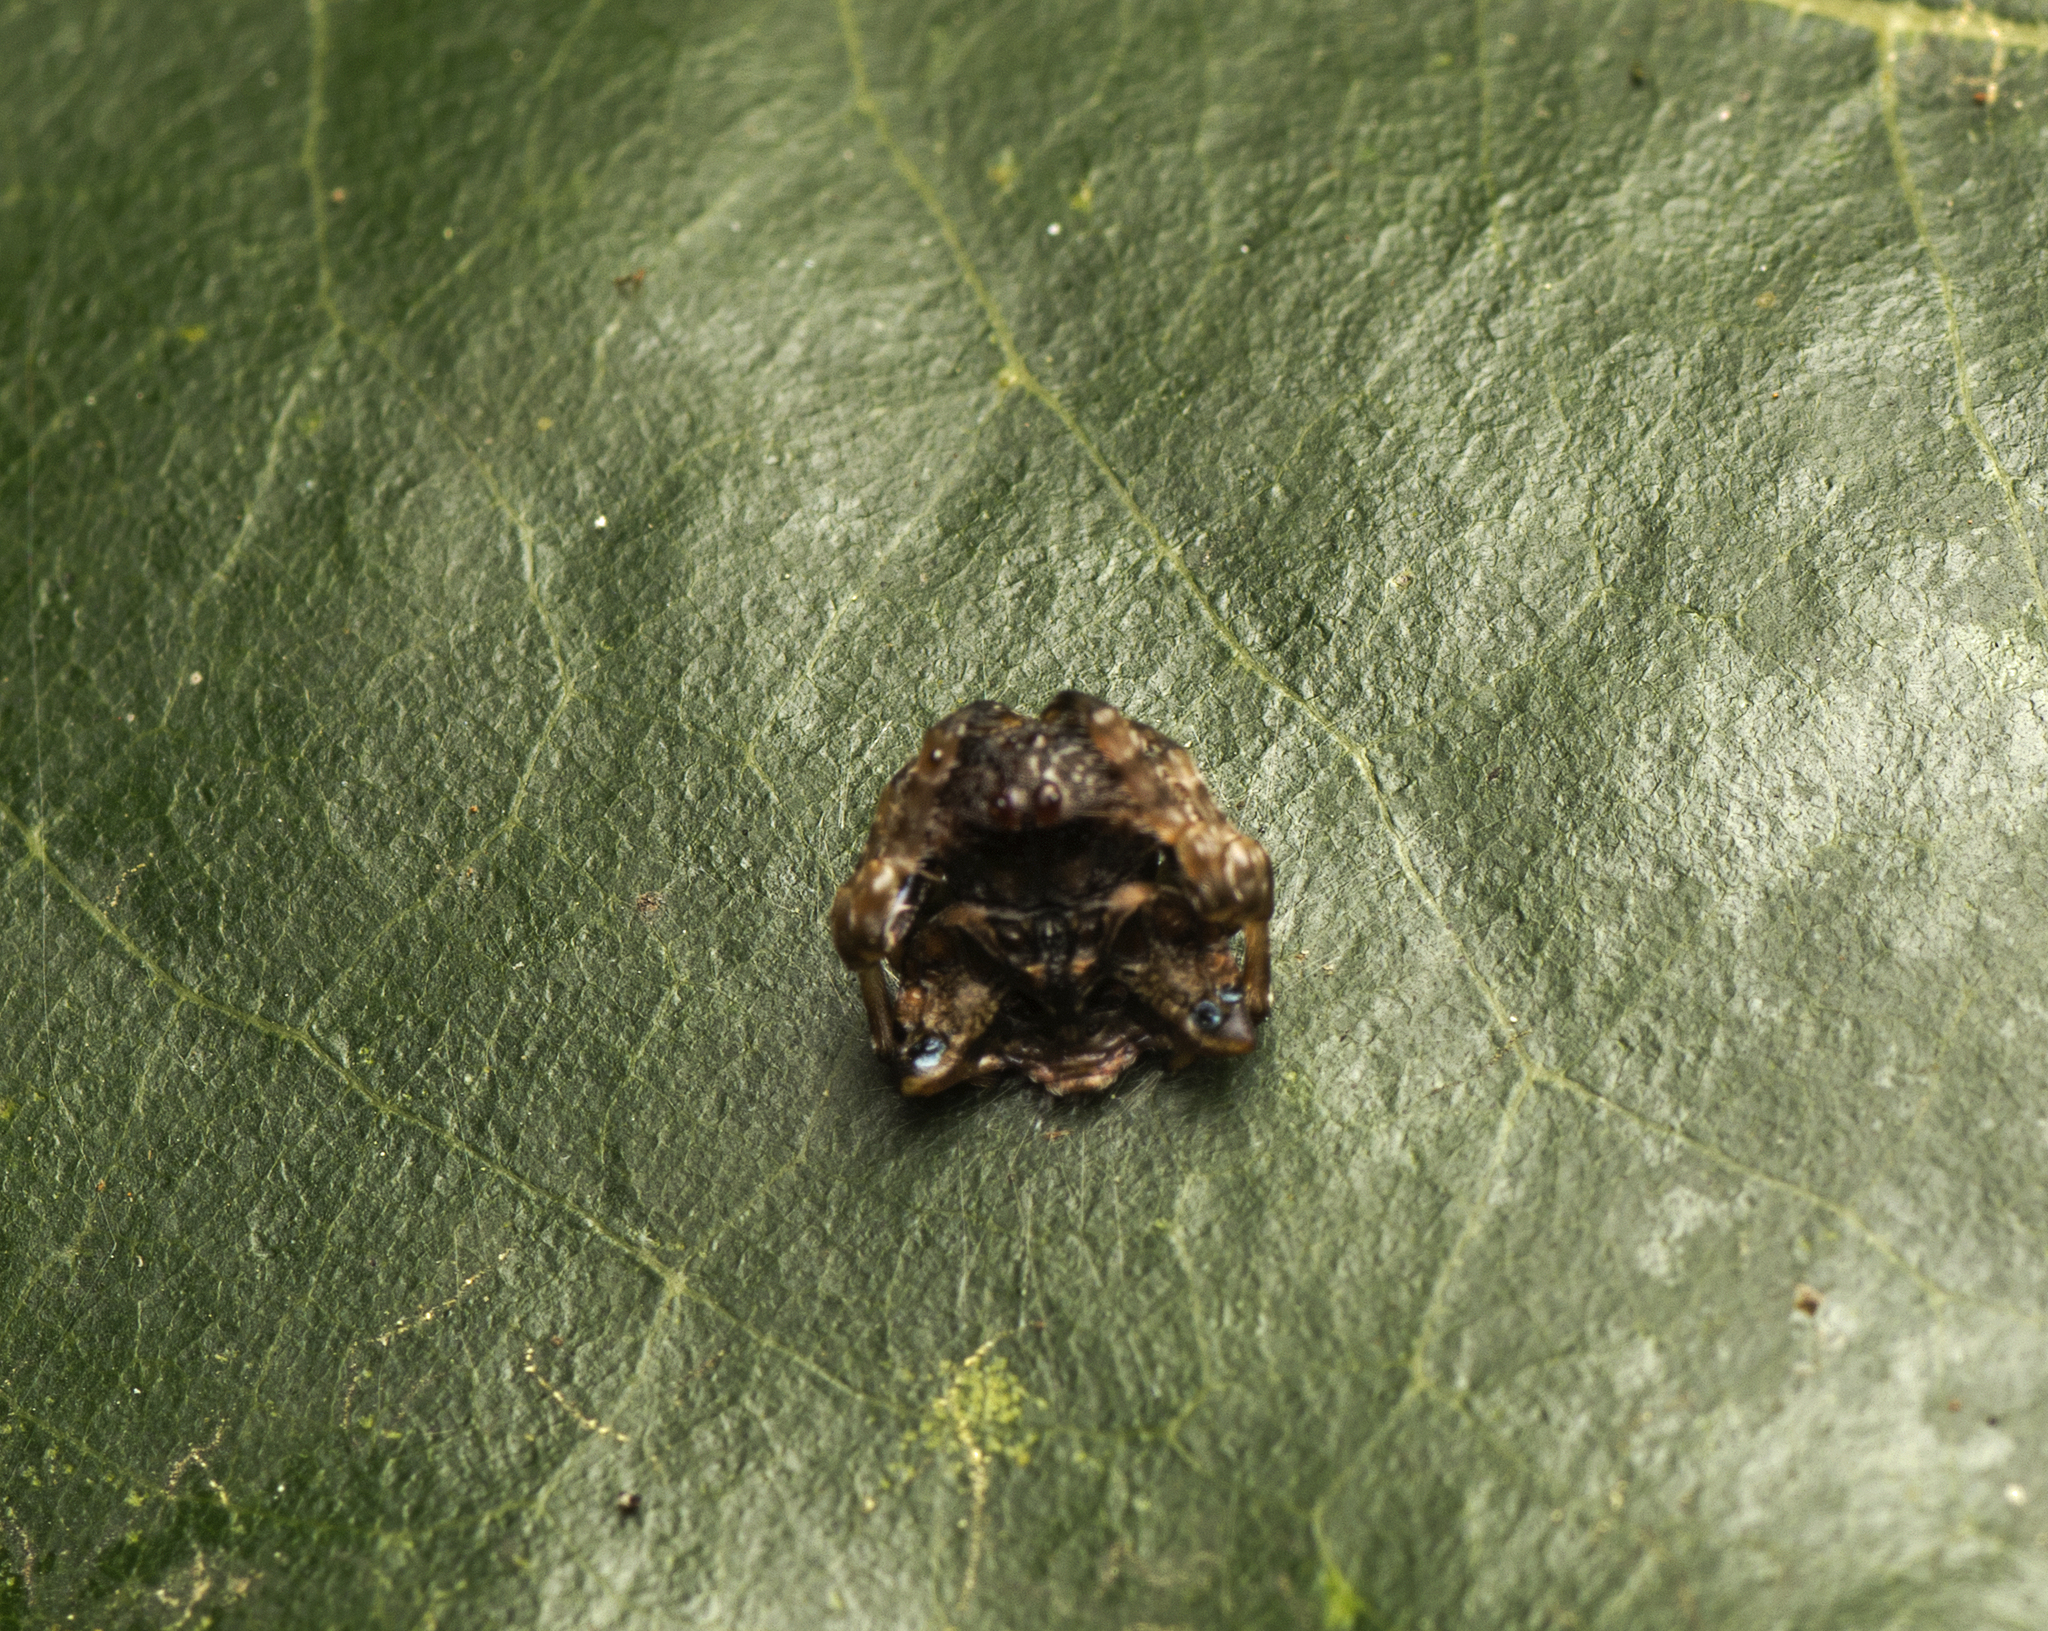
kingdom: Animalia
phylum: Arthropoda
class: Arachnida
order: Araneae
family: Arkyidae
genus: Arkys
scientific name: Arkys curtulus
